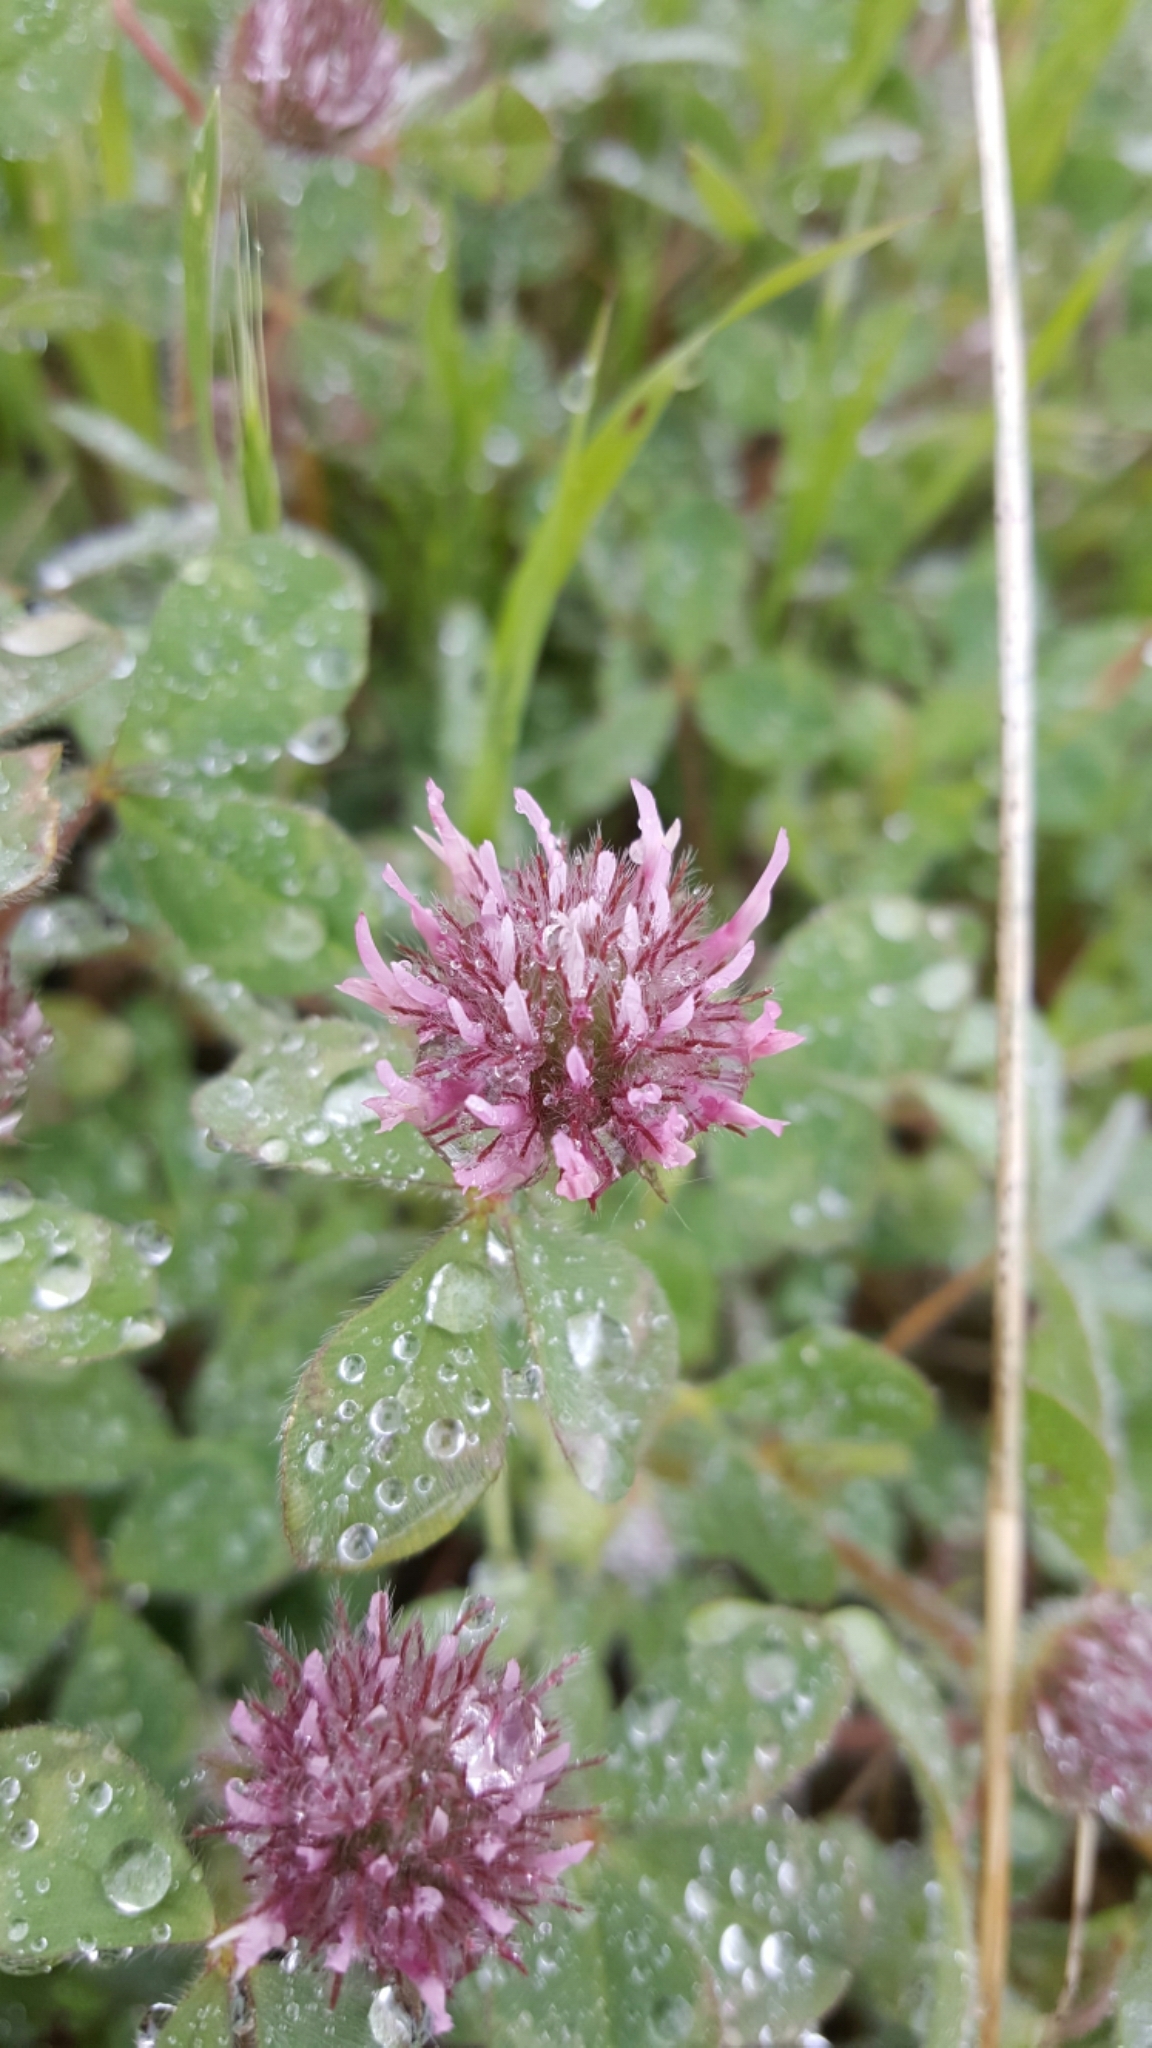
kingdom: Plantae
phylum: Tracheophyta
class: Magnoliopsida
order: Fabales
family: Fabaceae
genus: Trifolium
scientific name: Trifolium hirtum
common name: Rose clover
